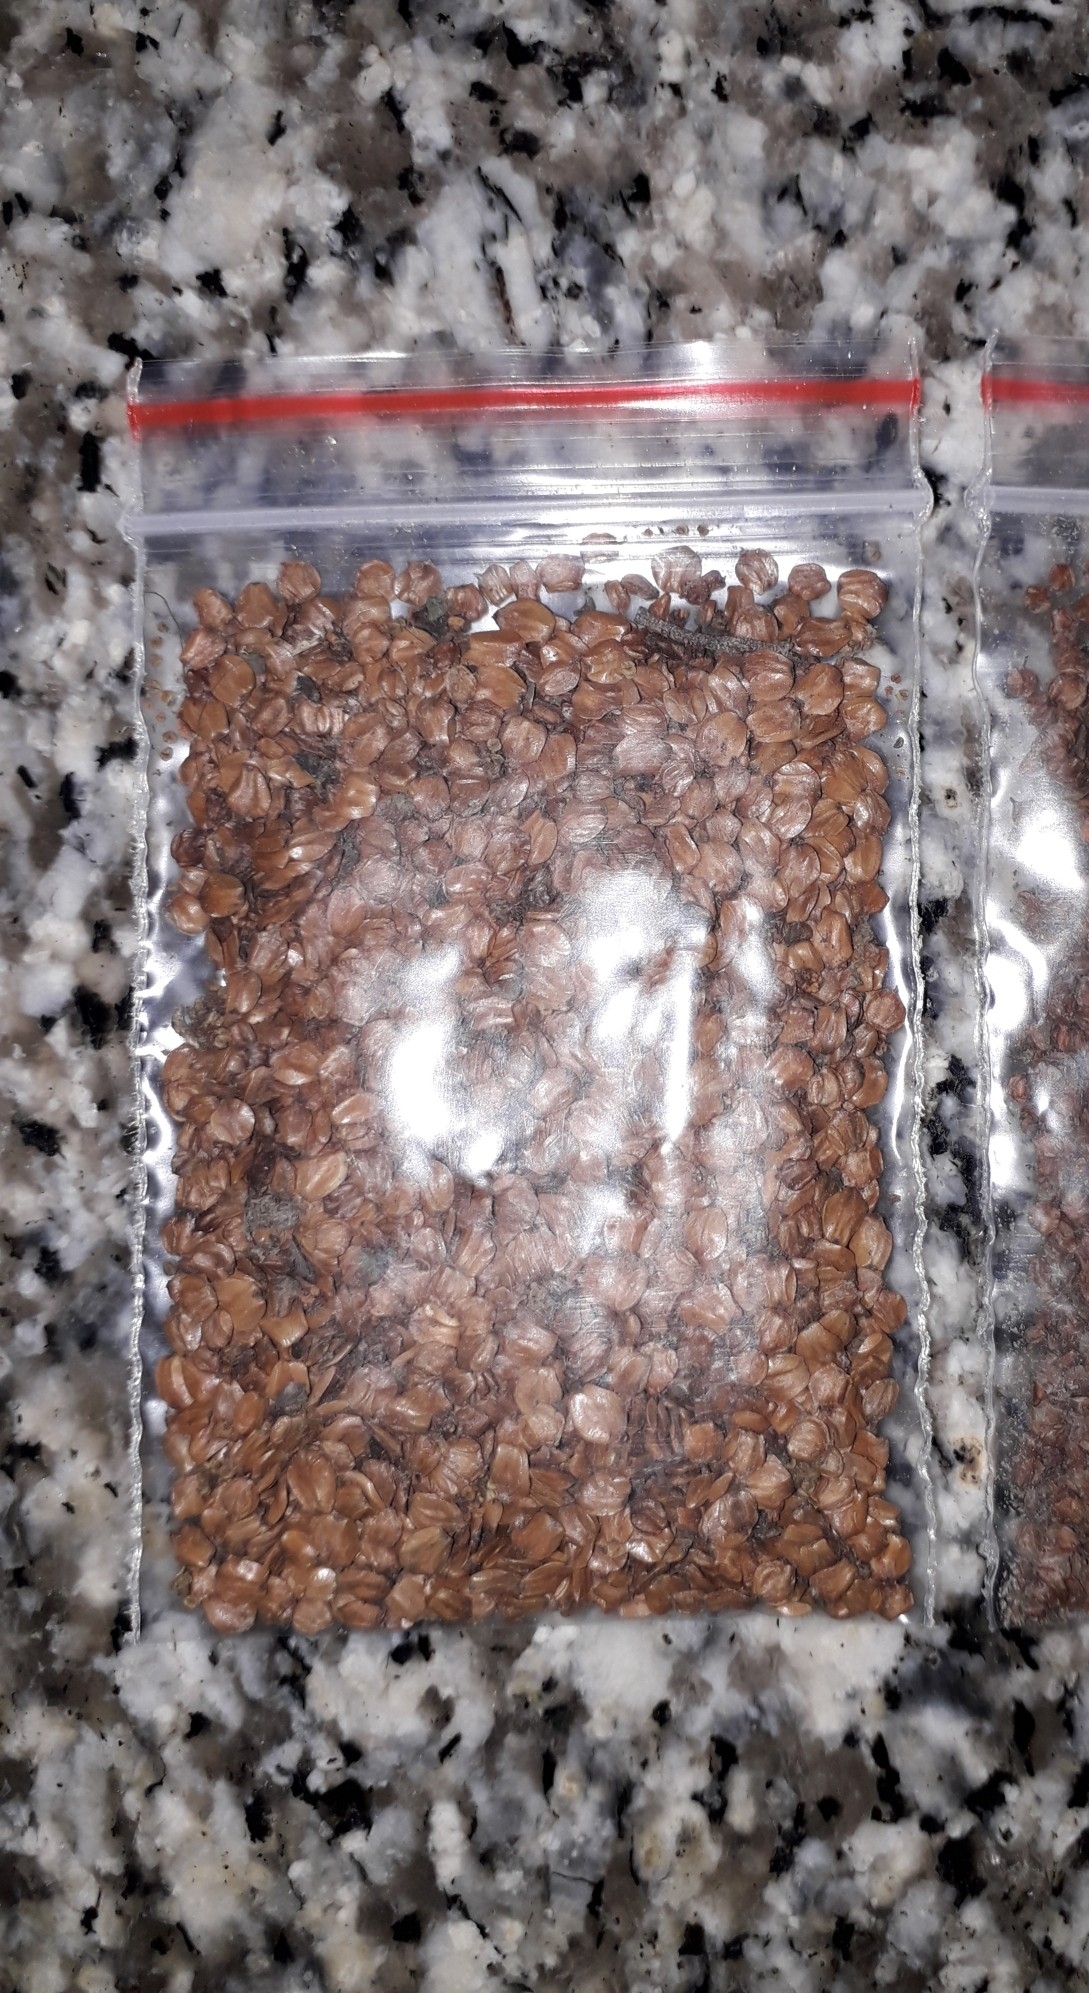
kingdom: Plantae
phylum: Tracheophyta
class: Magnoliopsida
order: Fagales
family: Betulaceae
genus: Alnus
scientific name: Alnus subcordata
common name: Caucasian alder
